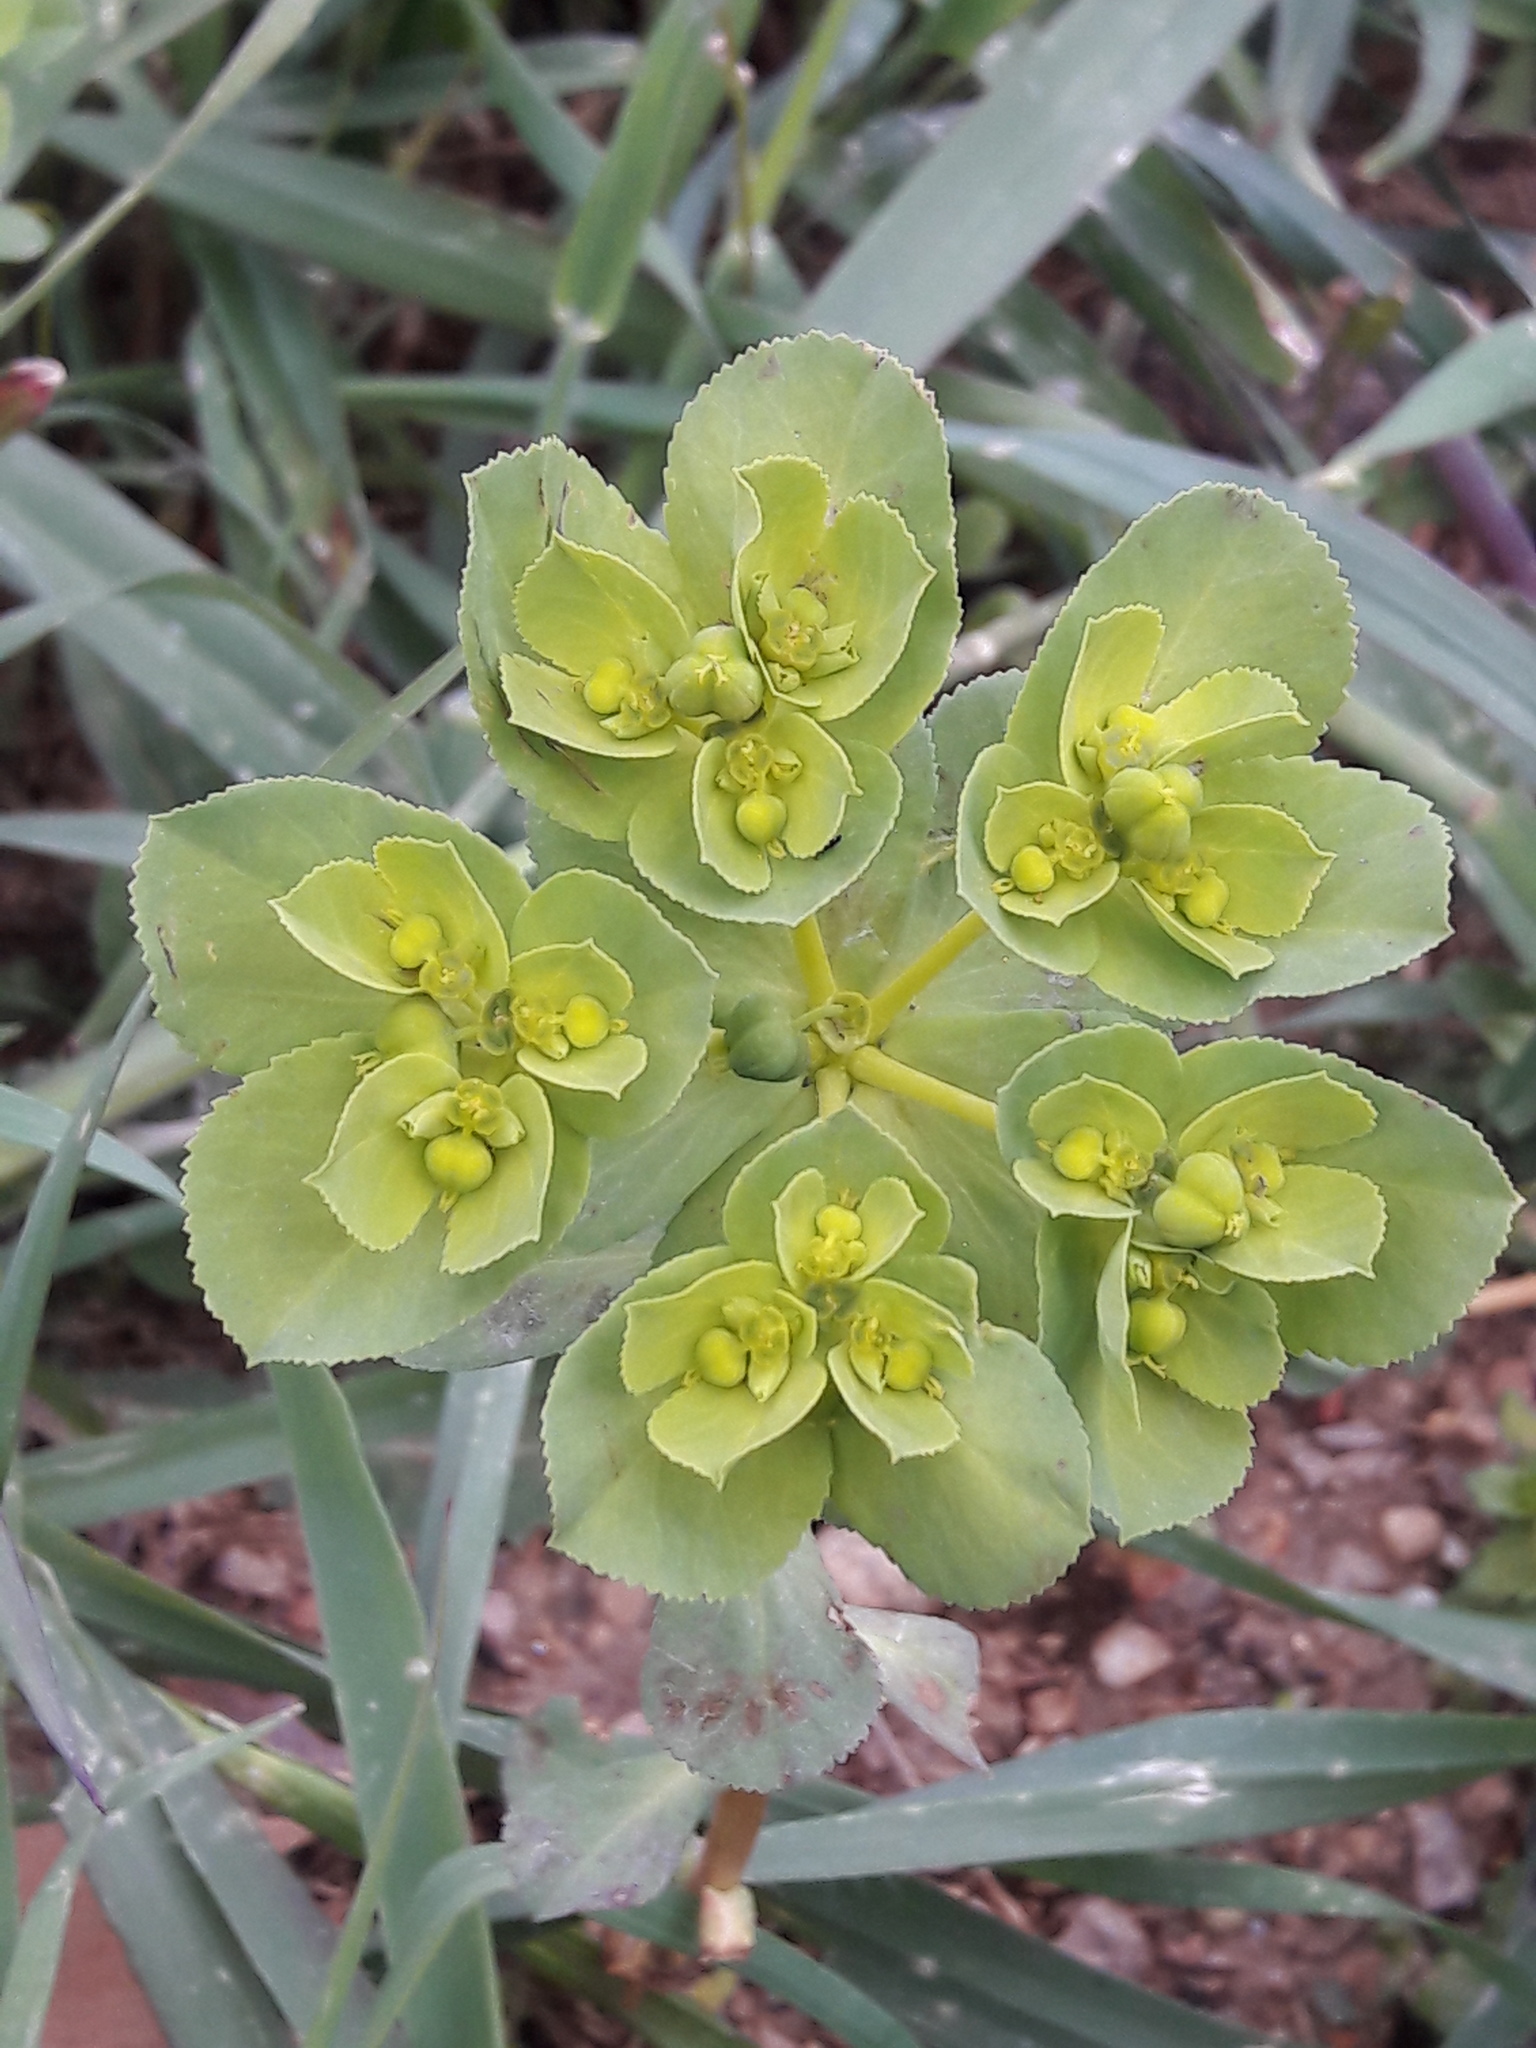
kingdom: Plantae
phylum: Tracheophyta
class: Magnoliopsida
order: Malpighiales
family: Euphorbiaceae
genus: Euphorbia
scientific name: Euphorbia helioscopia
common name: Sun spurge
